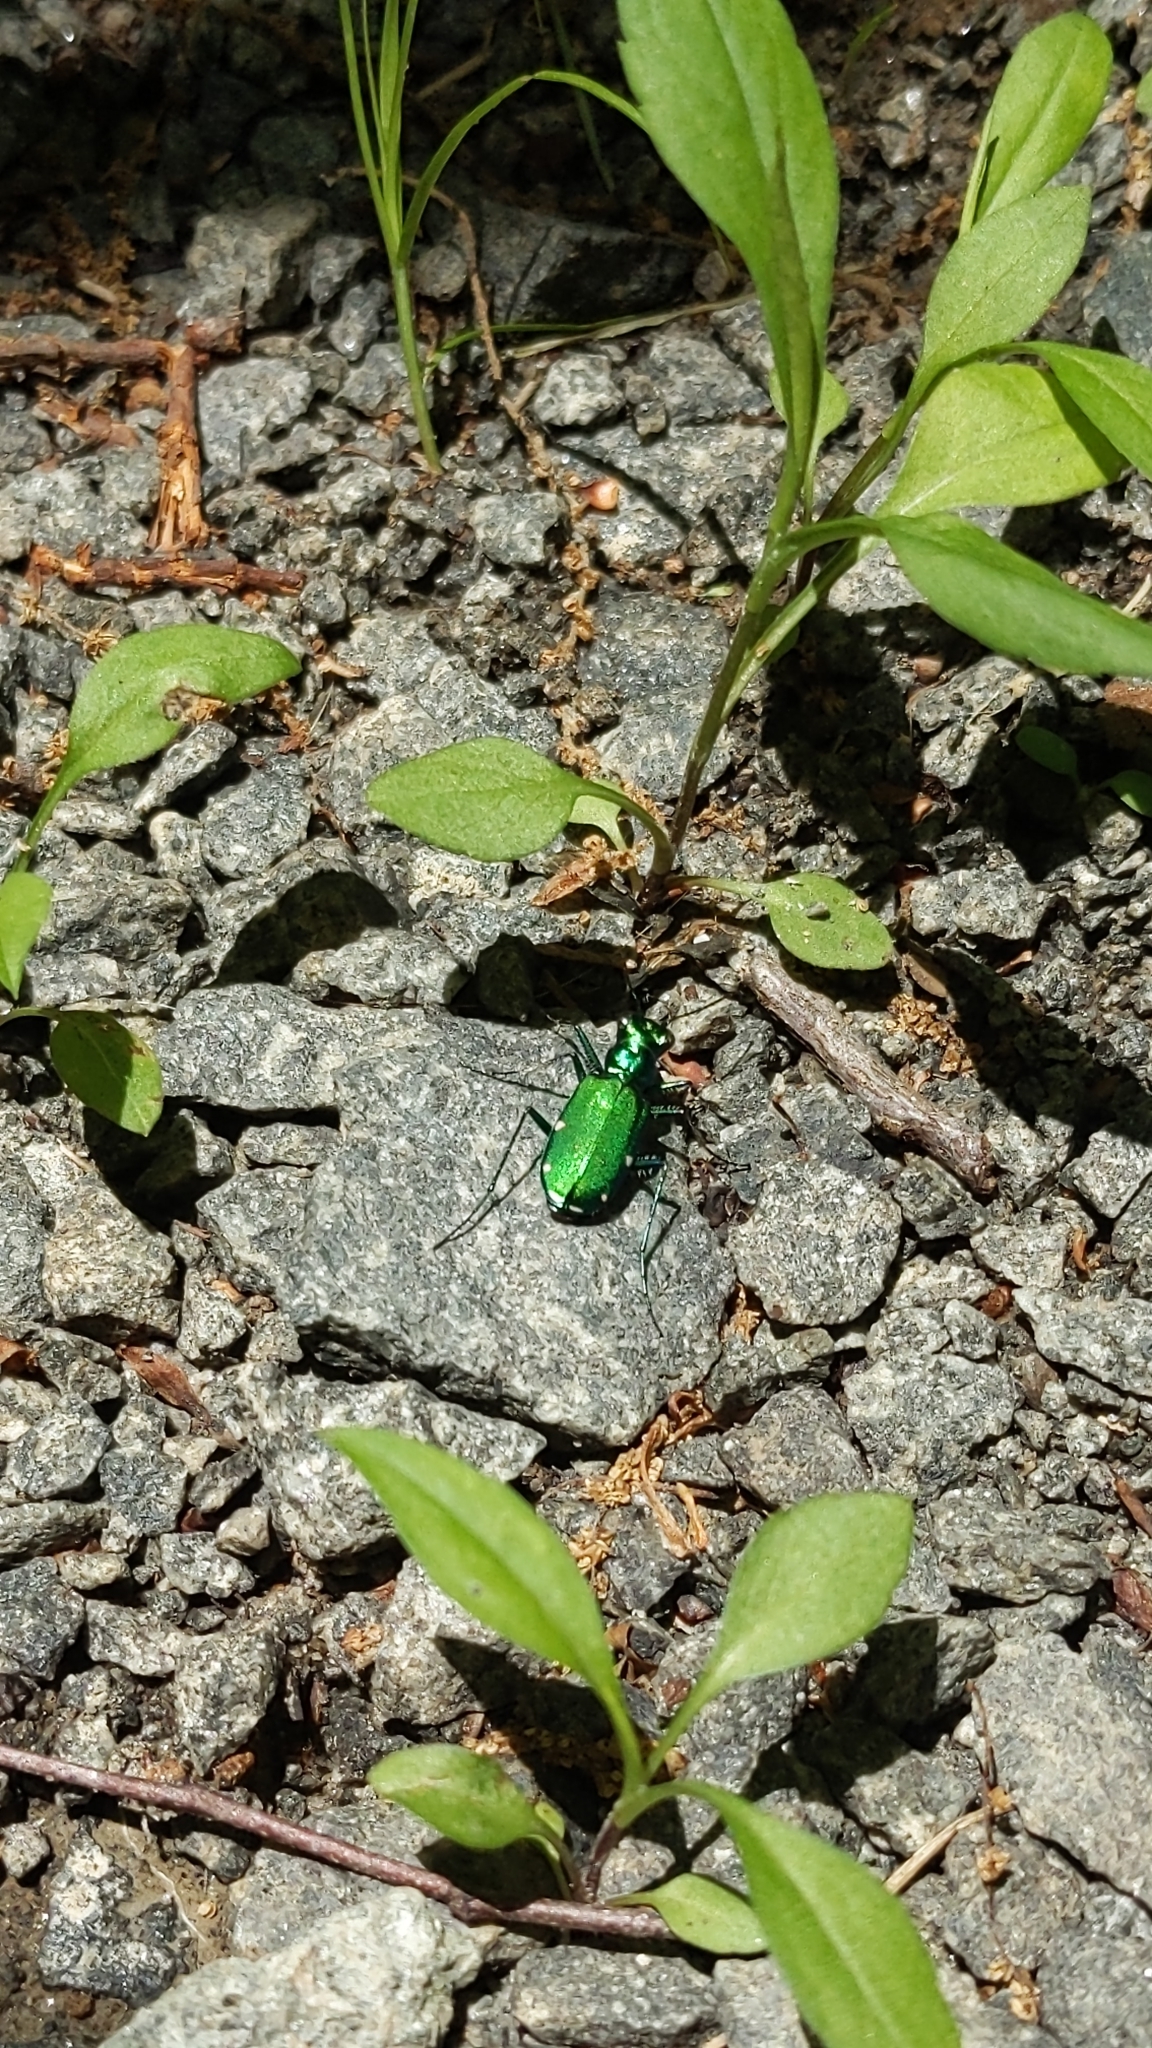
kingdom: Animalia
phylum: Arthropoda
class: Insecta
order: Coleoptera
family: Carabidae
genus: Cicindela
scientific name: Cicindela sexguttata
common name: Six-spotted tiger beetle
